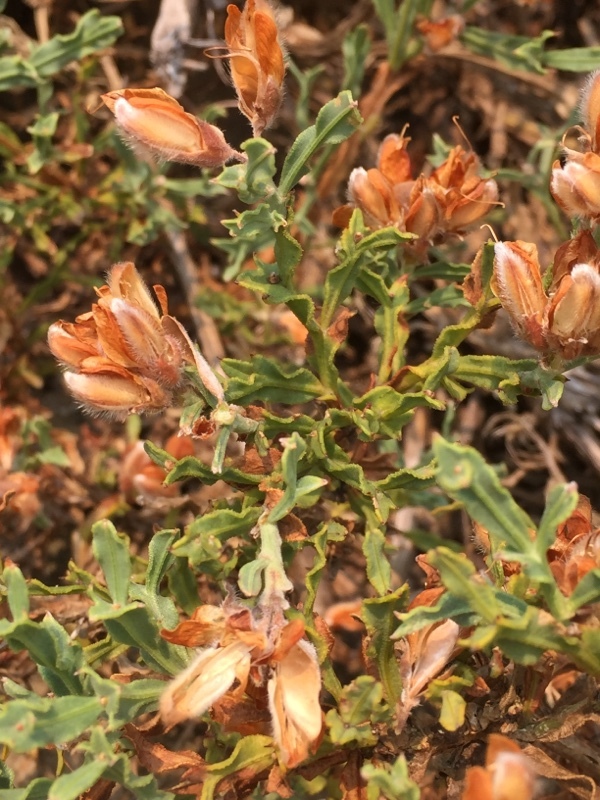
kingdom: Plantae
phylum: Tracheophyta
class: Magnoliopsida
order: Fabales
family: Fabaceae
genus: Genista
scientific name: Genista tridentata
